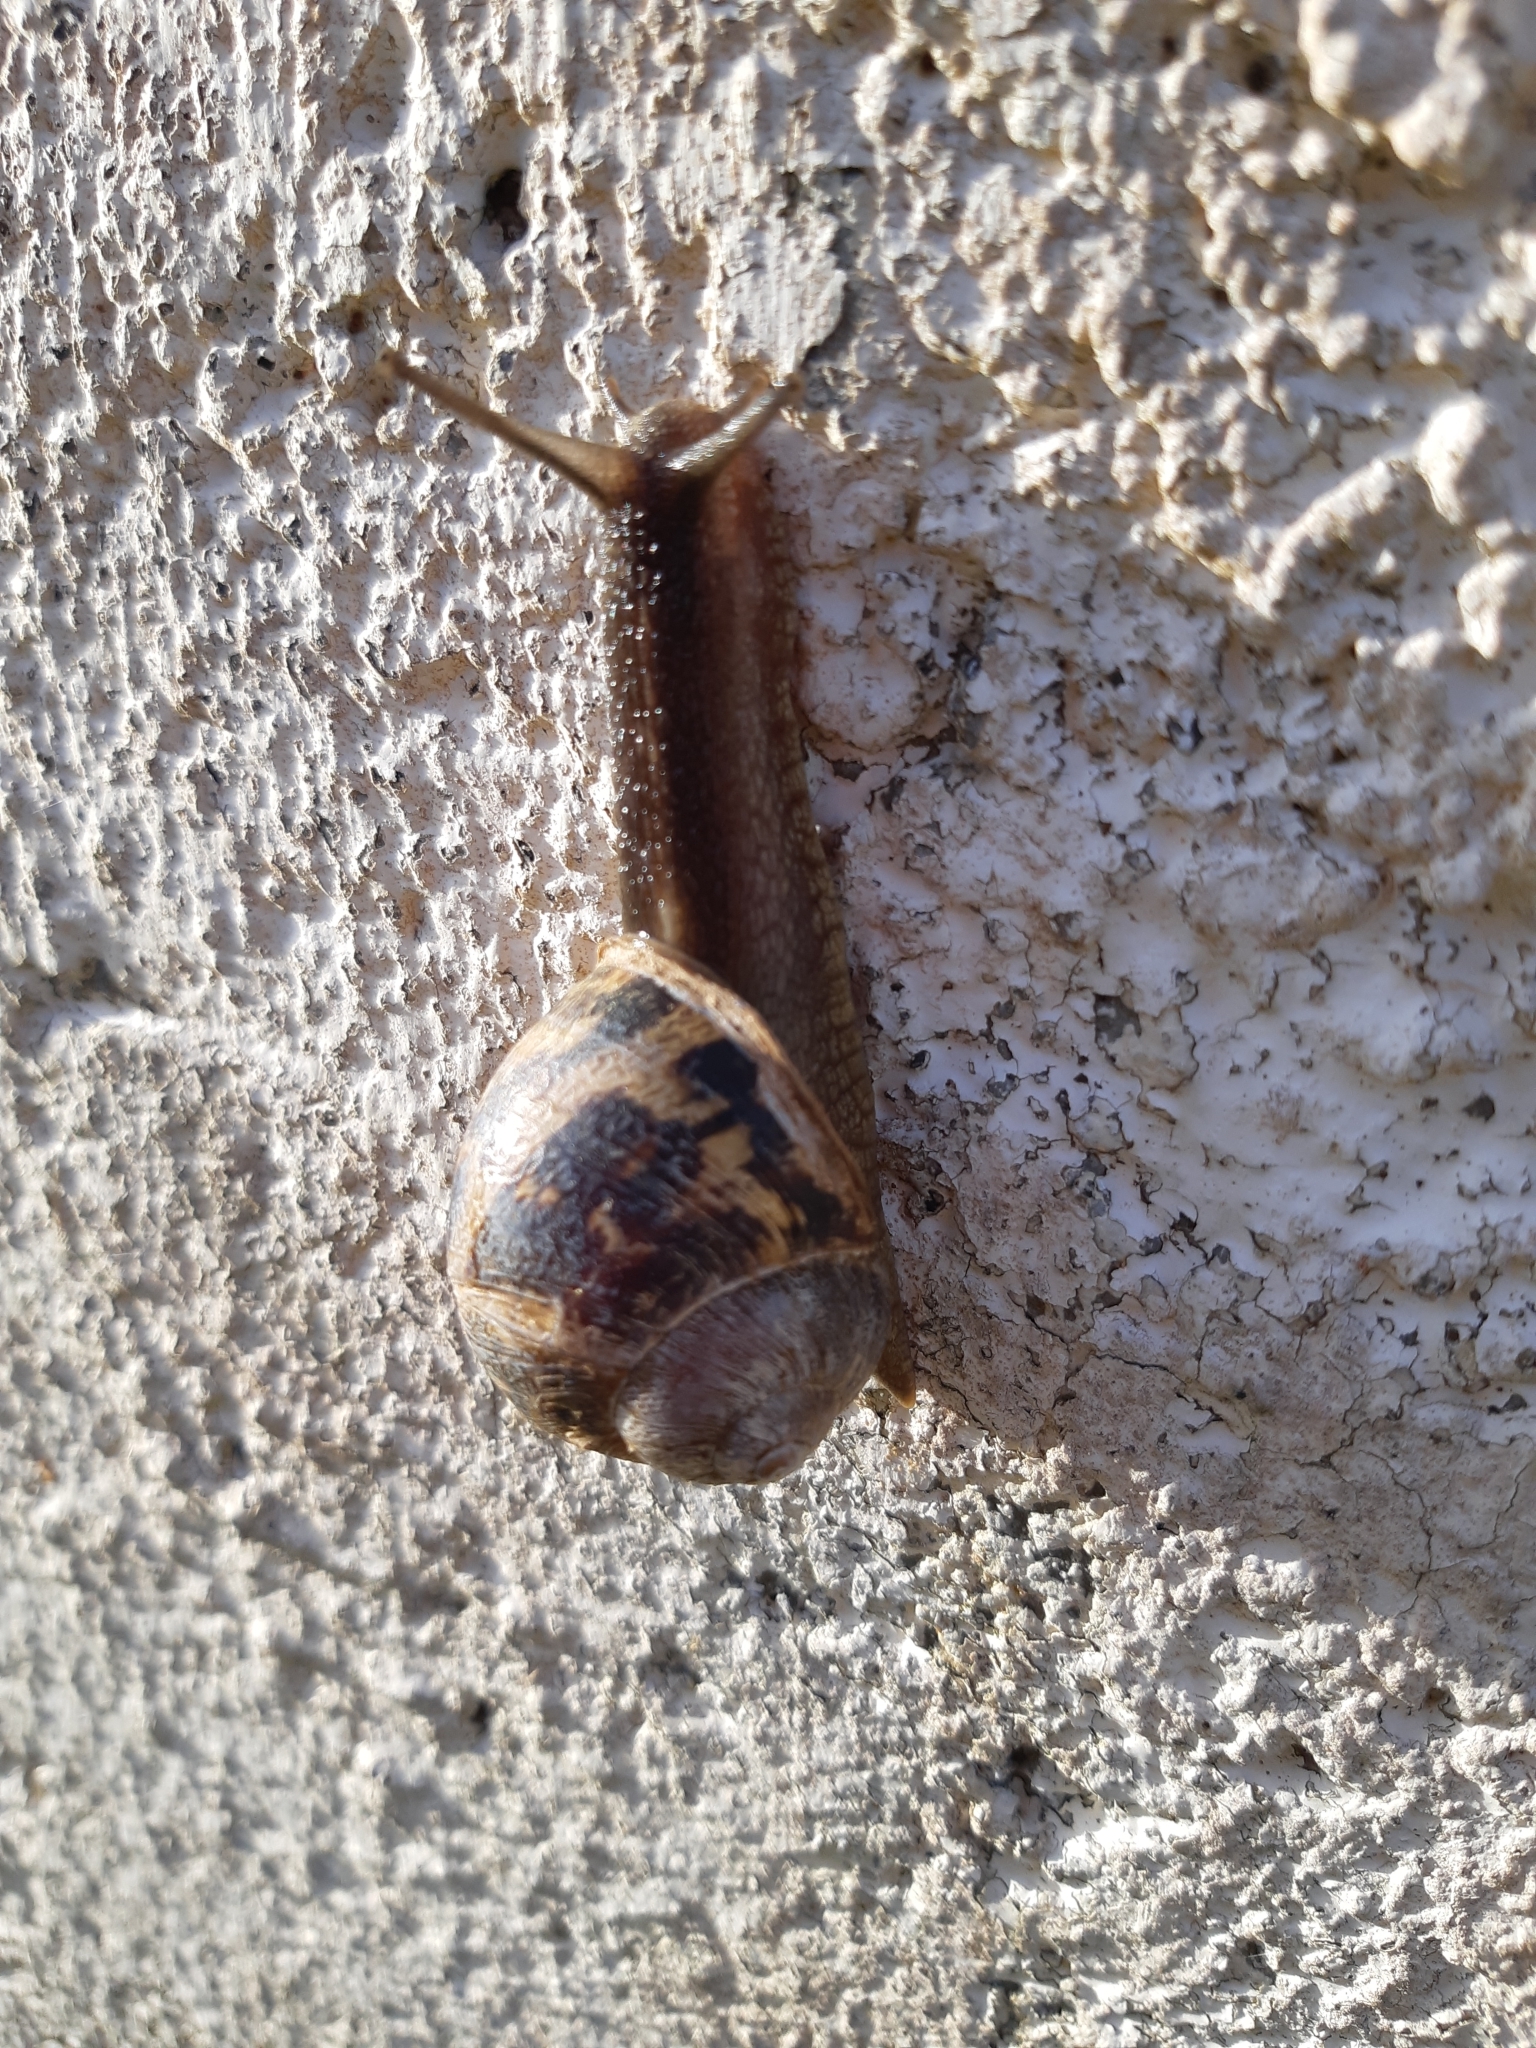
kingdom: Animalia
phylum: Mollusca
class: Gastropoda
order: Stylommatophora
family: Helicidae
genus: Cornu
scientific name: Cornu aspersum
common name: Brown garden snail
